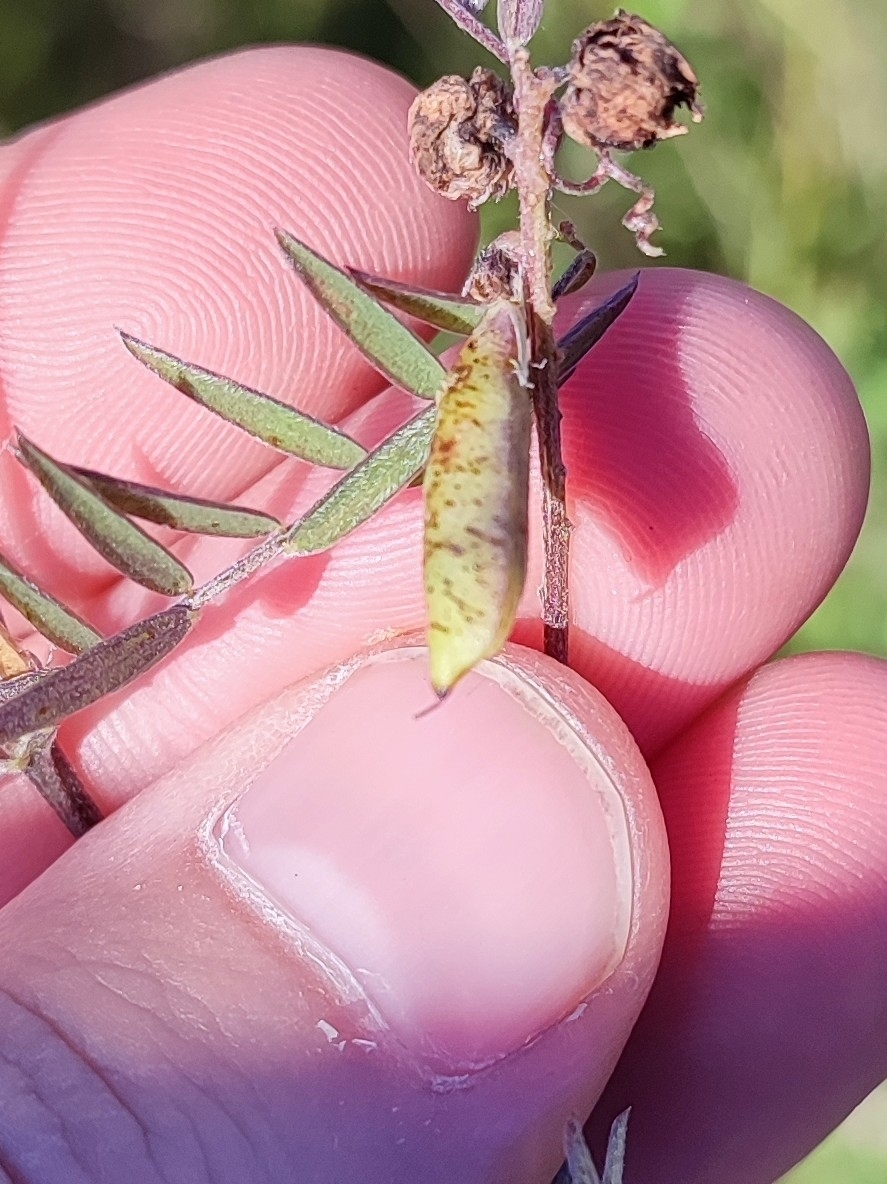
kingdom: Plantae
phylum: Tracheophyta
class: Magnoliopsida
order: Fabales
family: Fabaceae
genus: Vicia
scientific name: Vicia cracca
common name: Bird vetch
